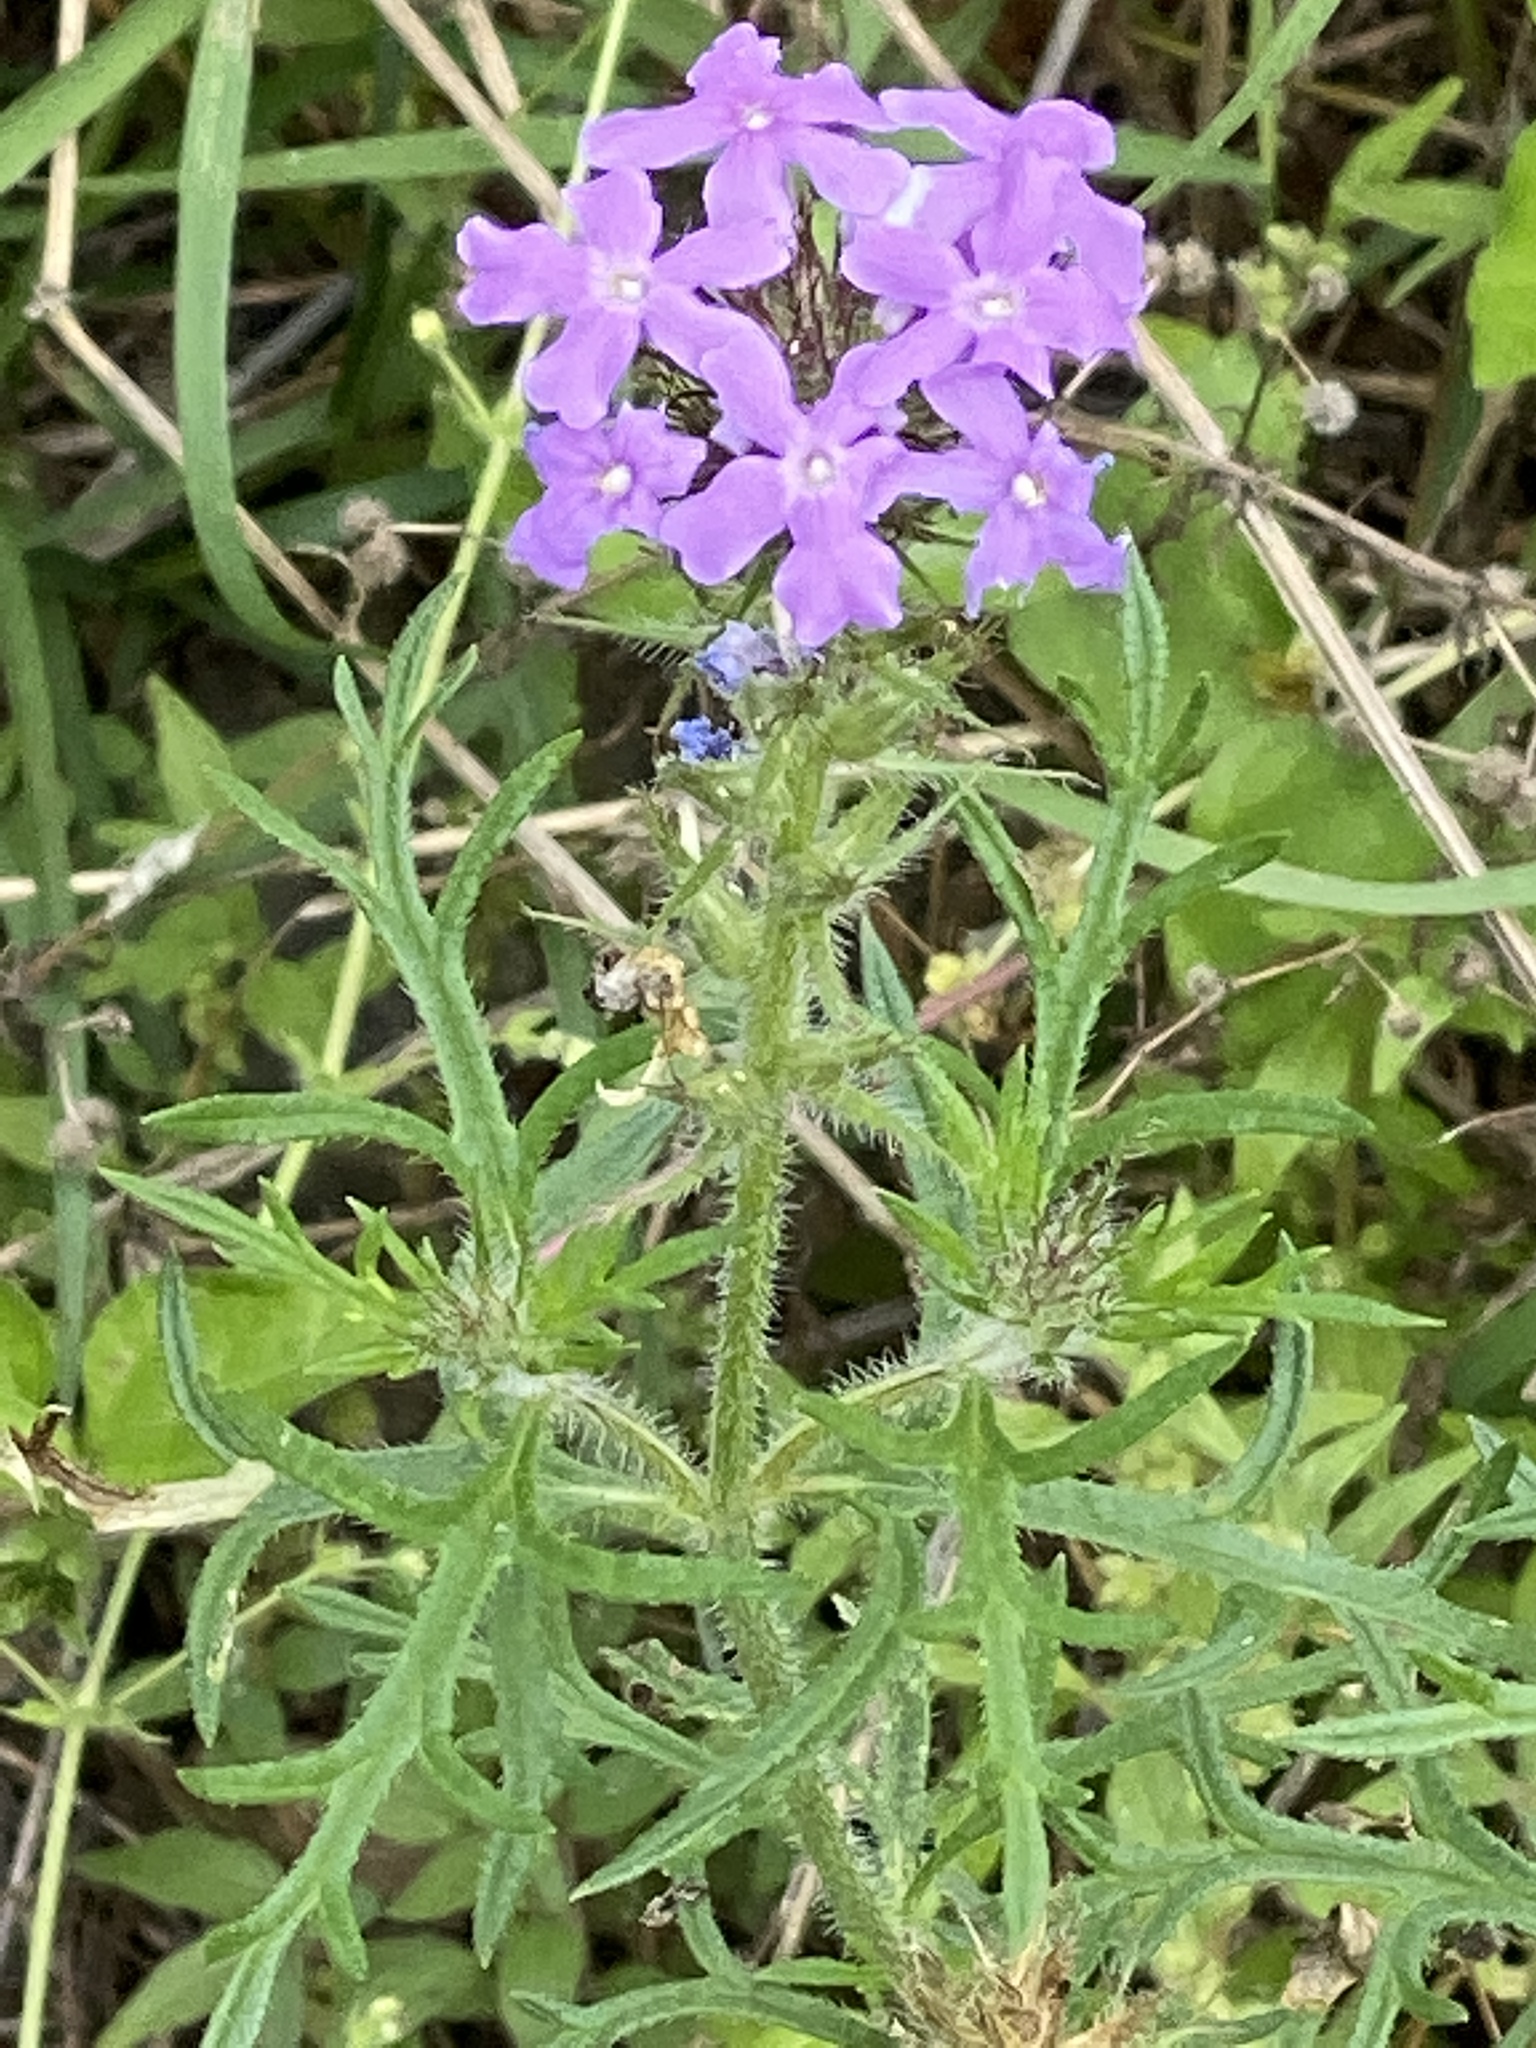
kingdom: Plantae
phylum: Tracheophyta
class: Magnoliopsida
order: Lamiales
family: Verbenaceae
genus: Verbena
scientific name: Verbena bipinnatifida
